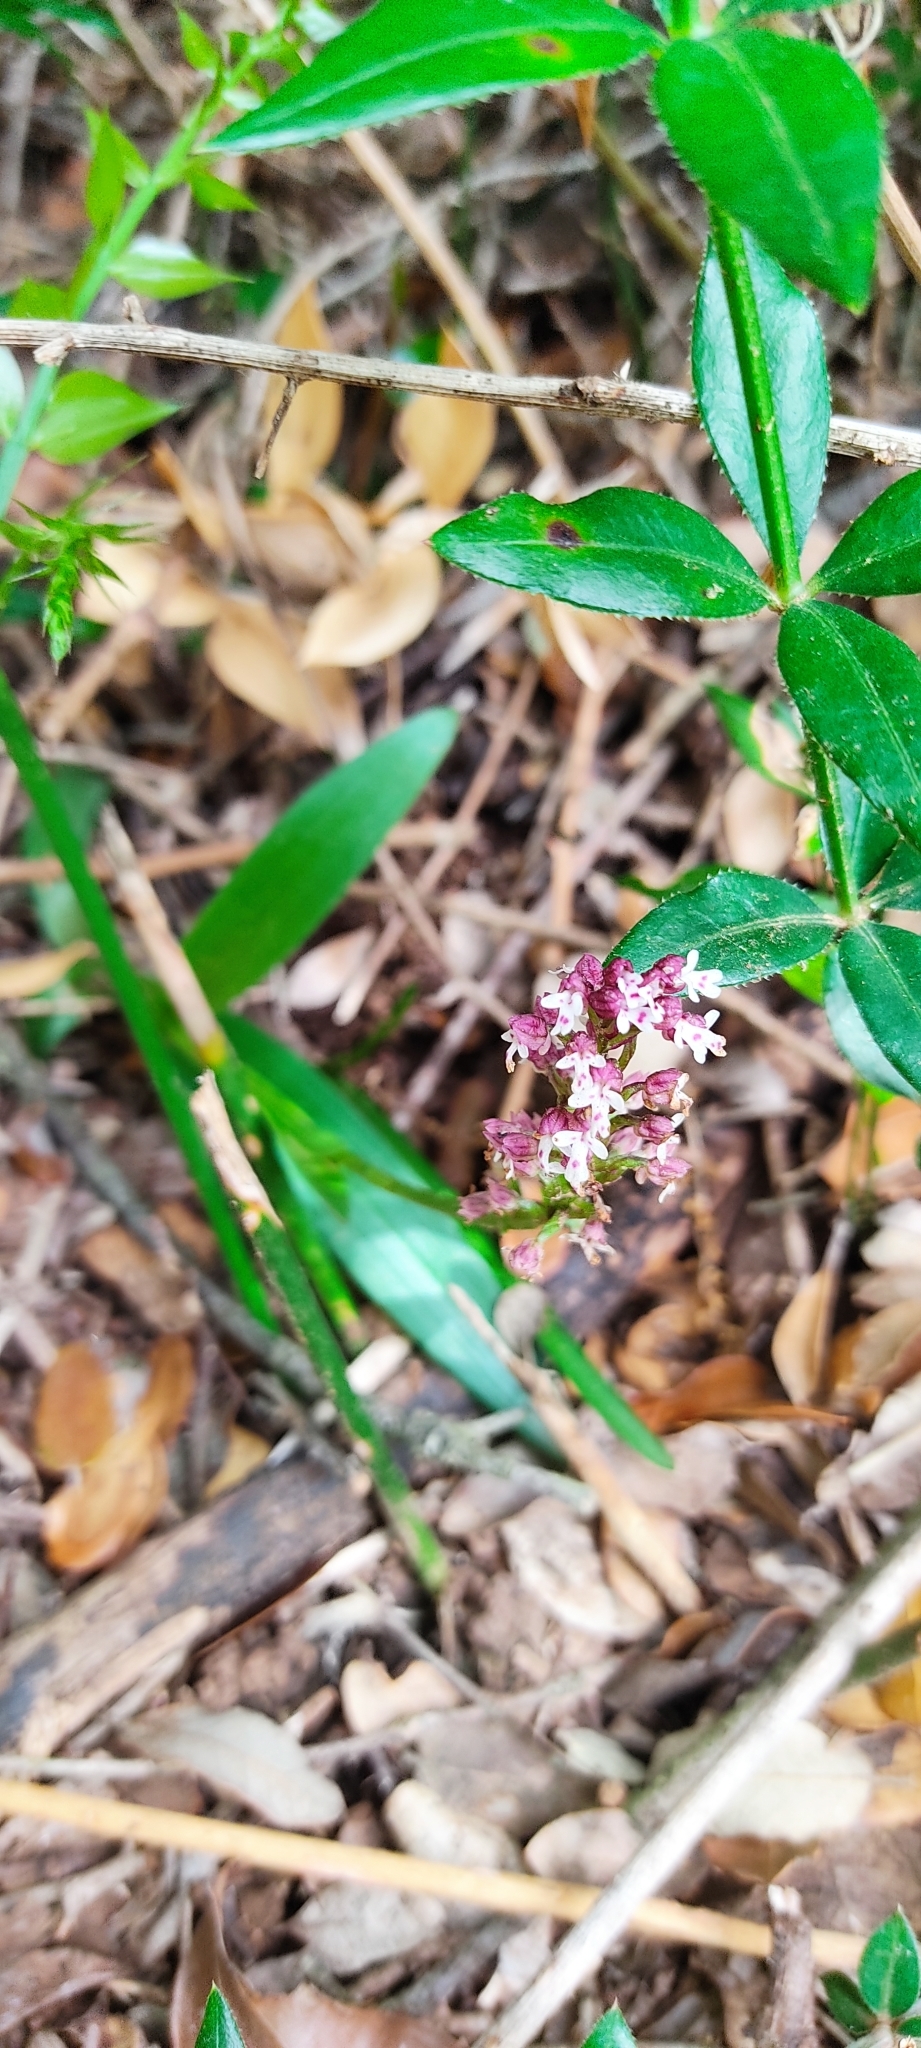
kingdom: Plantae
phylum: Tracheophyta
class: Liliopsida
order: Asparagales
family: Orchidaceae
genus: Neotinea
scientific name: Neotinea ustulata
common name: Burnt orchid
